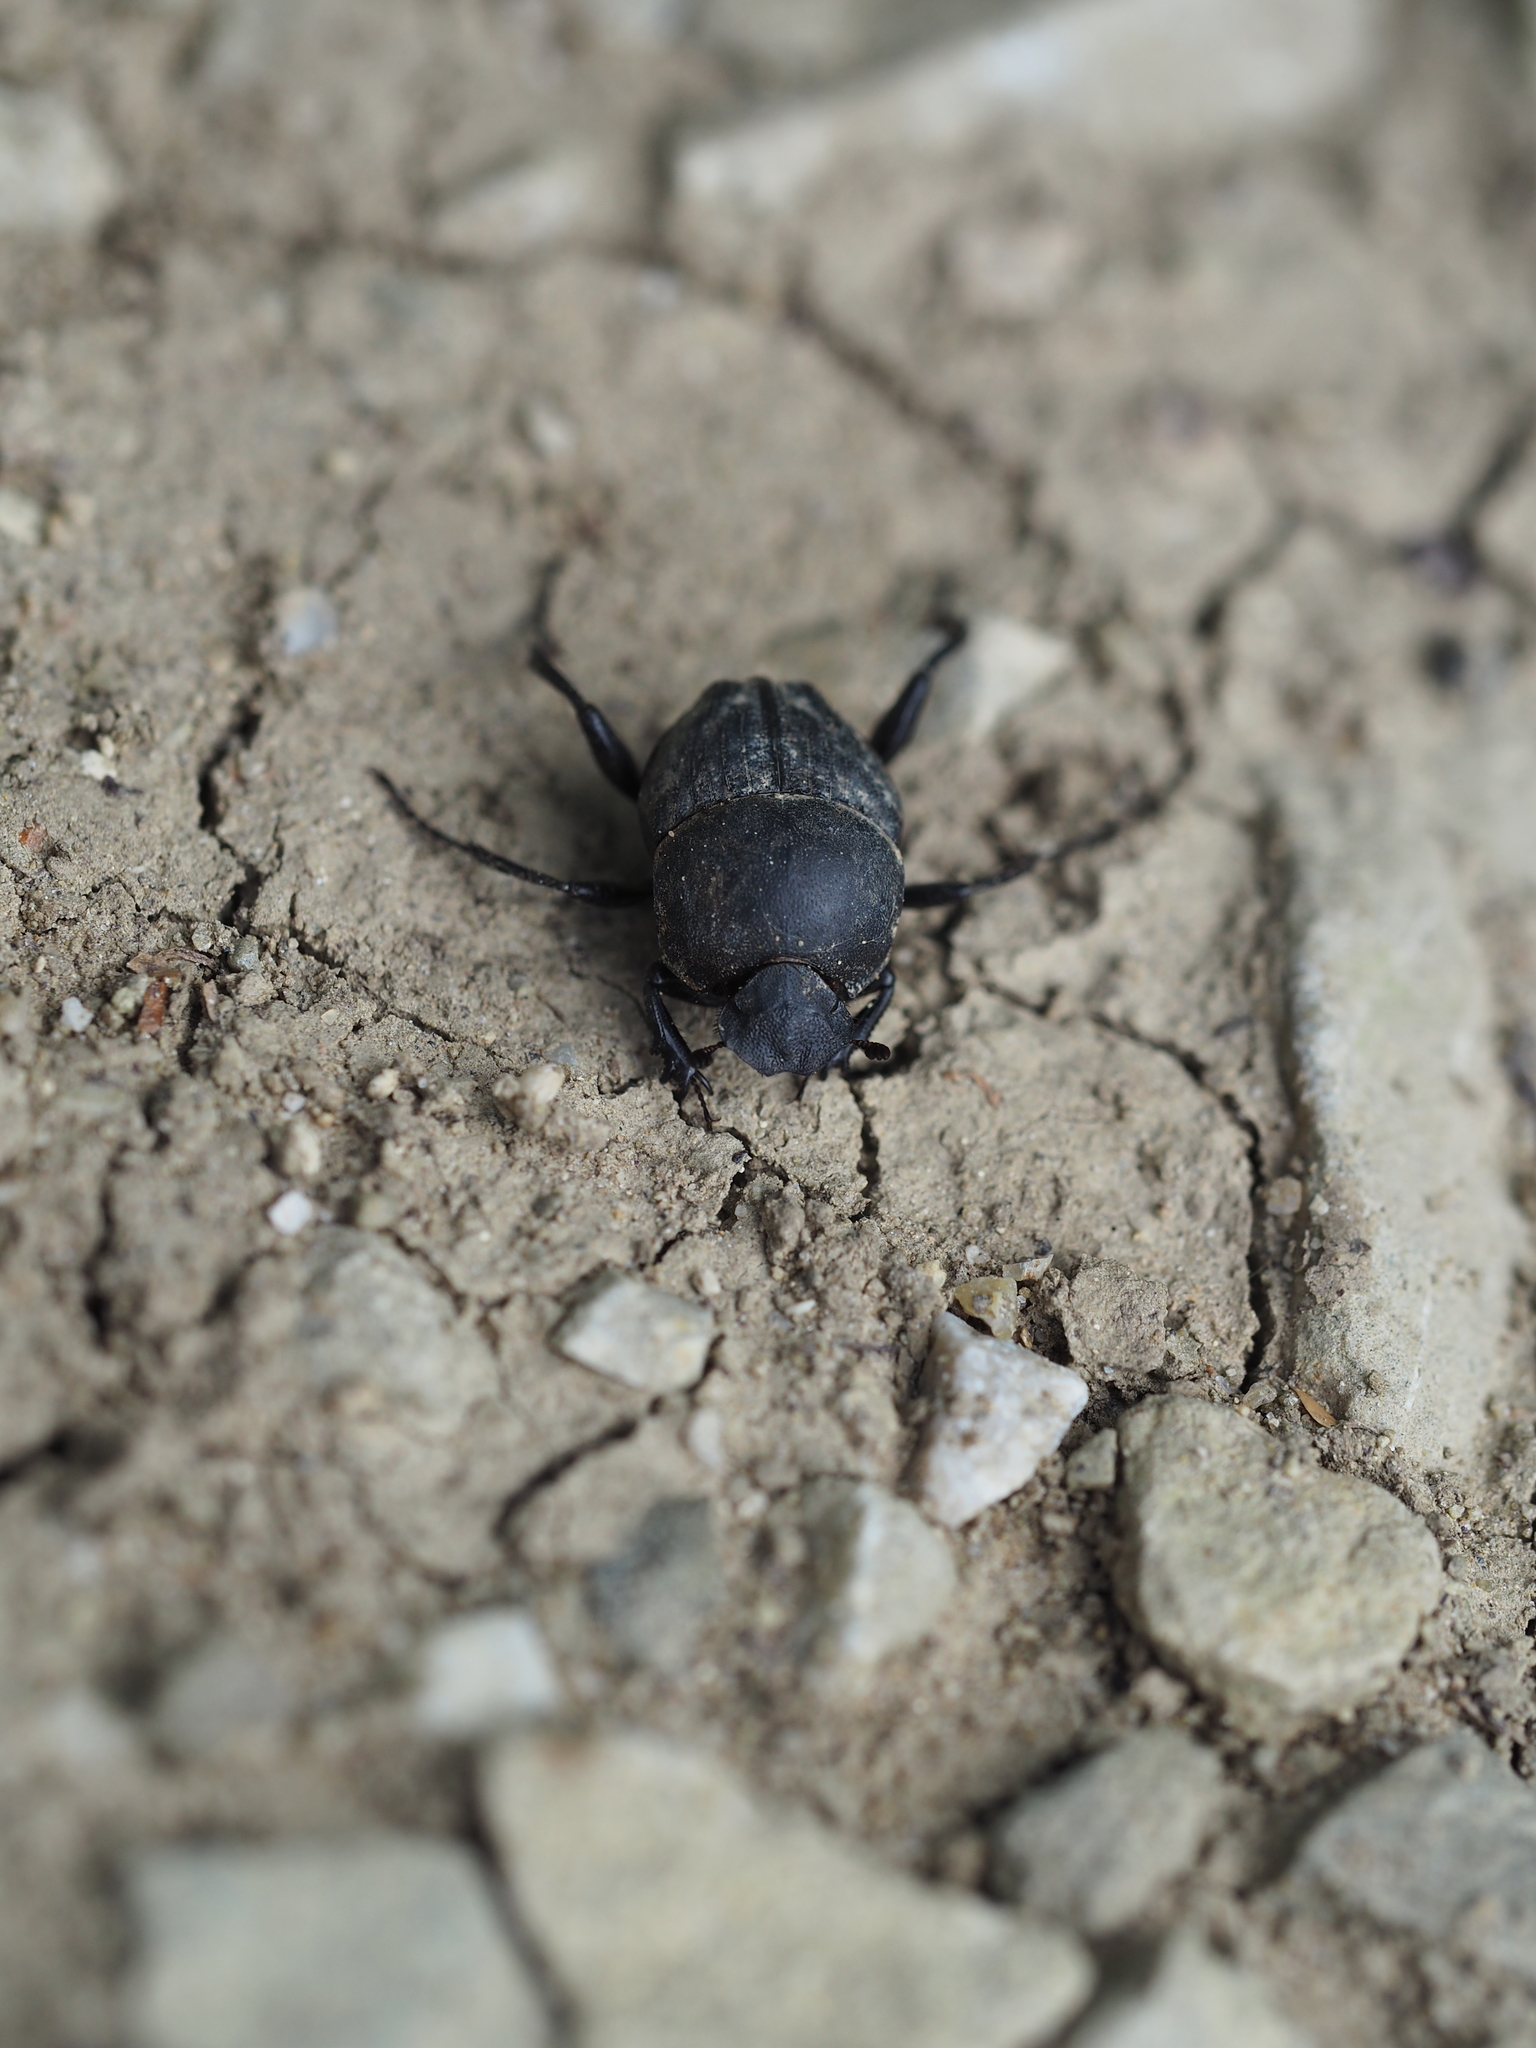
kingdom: Animalia
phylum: Arthropoda
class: Insecta
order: Coleoptera
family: Scarabaeidae
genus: Sisyphus
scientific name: Sisyphus schaefferi
